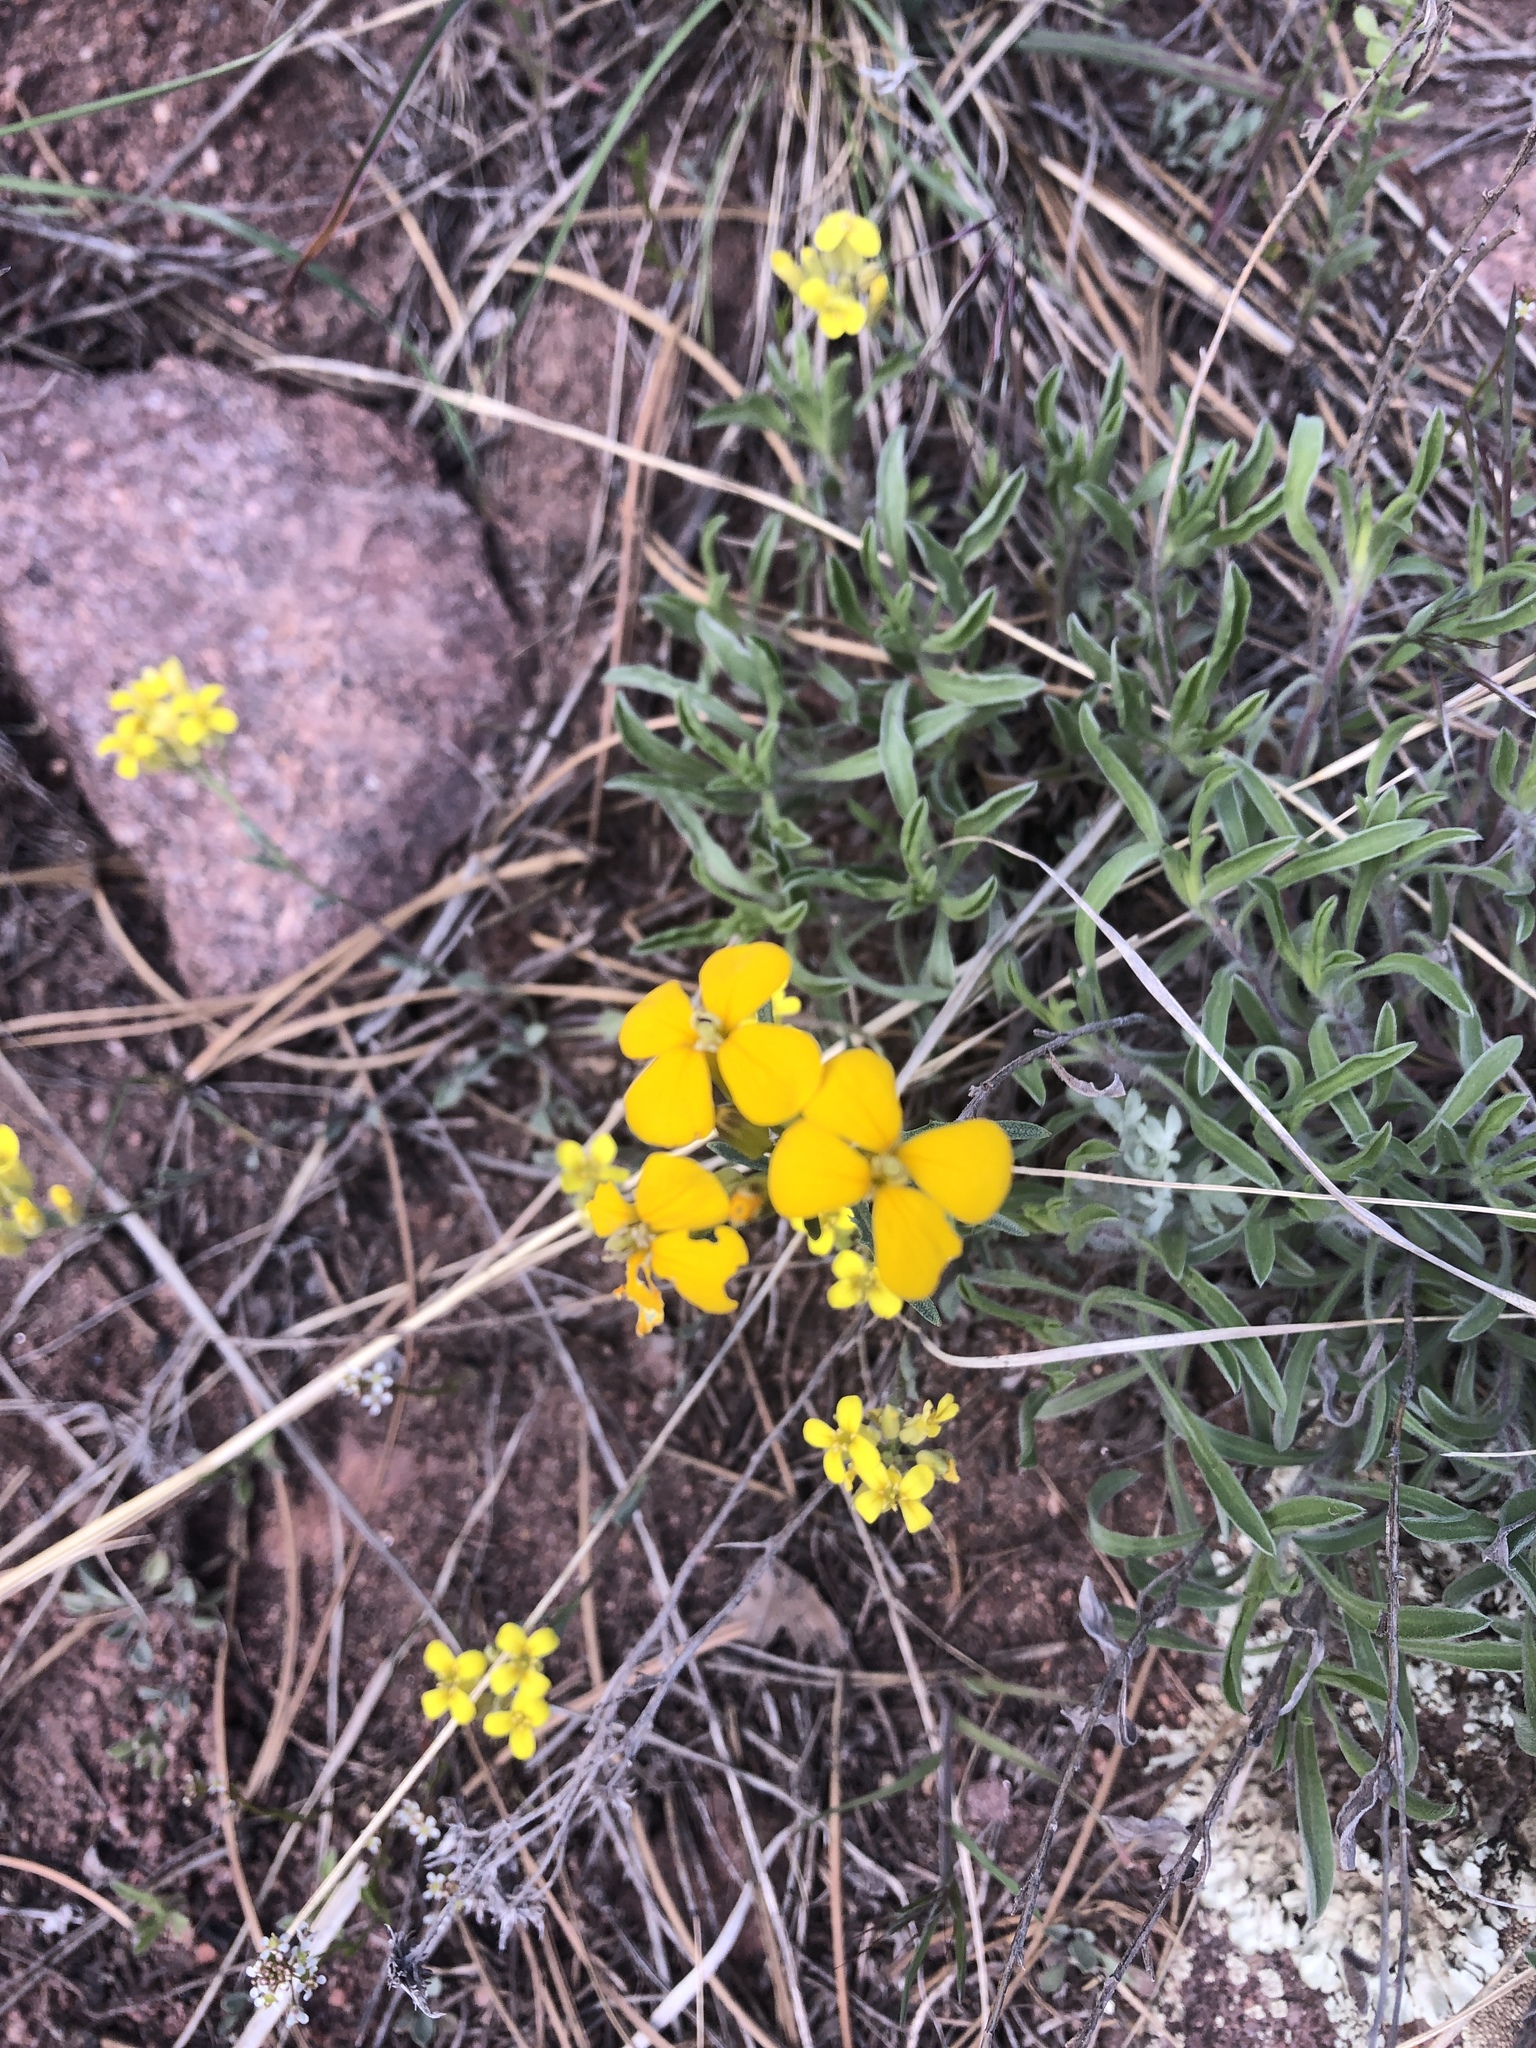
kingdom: Plantae
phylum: Tracheophyta
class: Magnoliopsida
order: Brassicales
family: Brassicaceae
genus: Erysimum
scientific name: Erysimum capitatum
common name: Western wallflower
